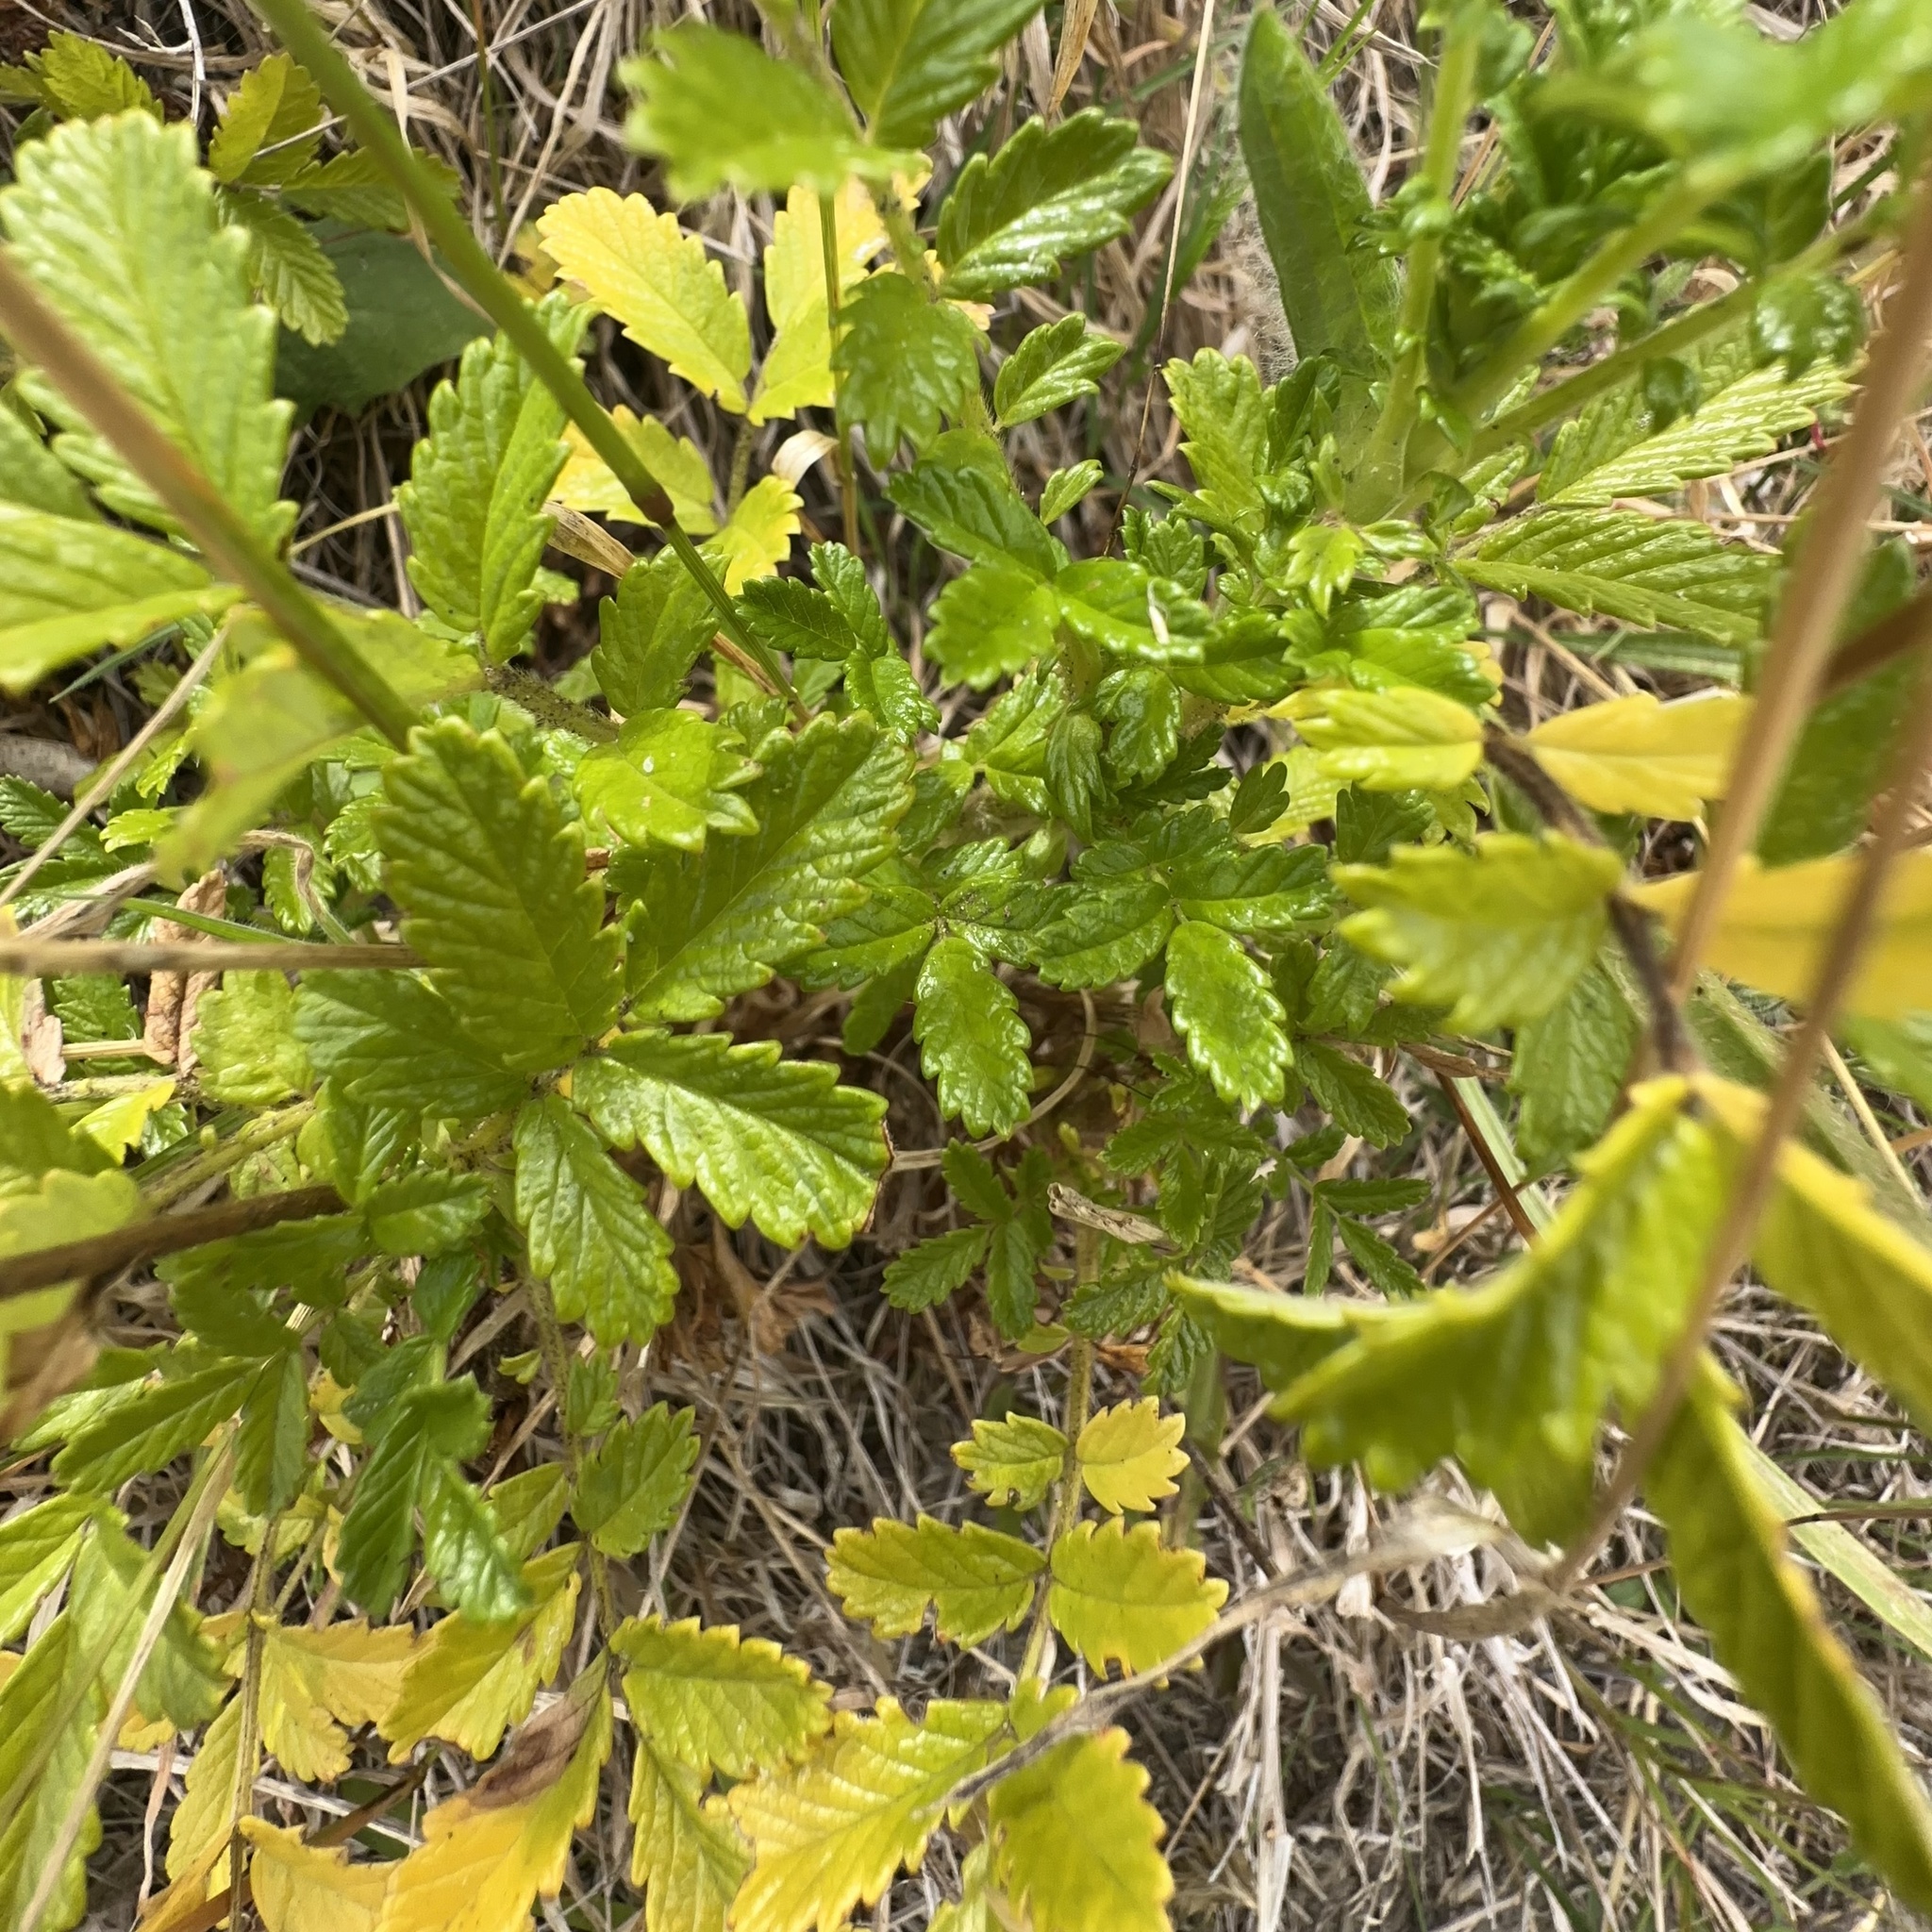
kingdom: Plantae
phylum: Tracheophyta
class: Magnoliopsida
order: Rosales
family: Rosaceae
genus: Acaena
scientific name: Acaena pallida
